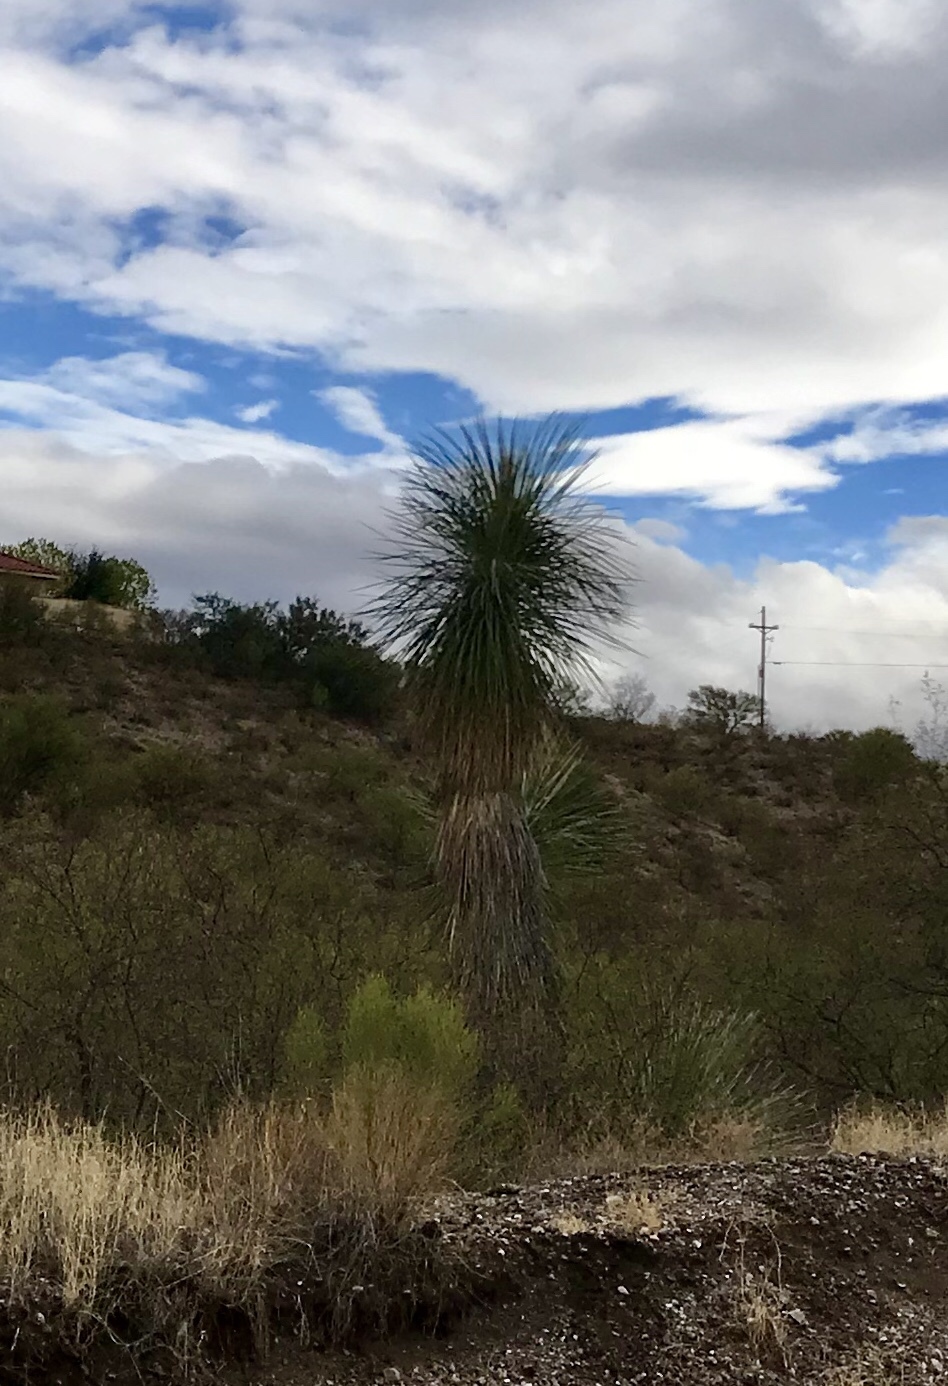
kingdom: Plantae
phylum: Tracheophyta
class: Liliopsida
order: Asparagales
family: Asparagaceae
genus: Yucca
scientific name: Yucca elata
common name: Palmella
